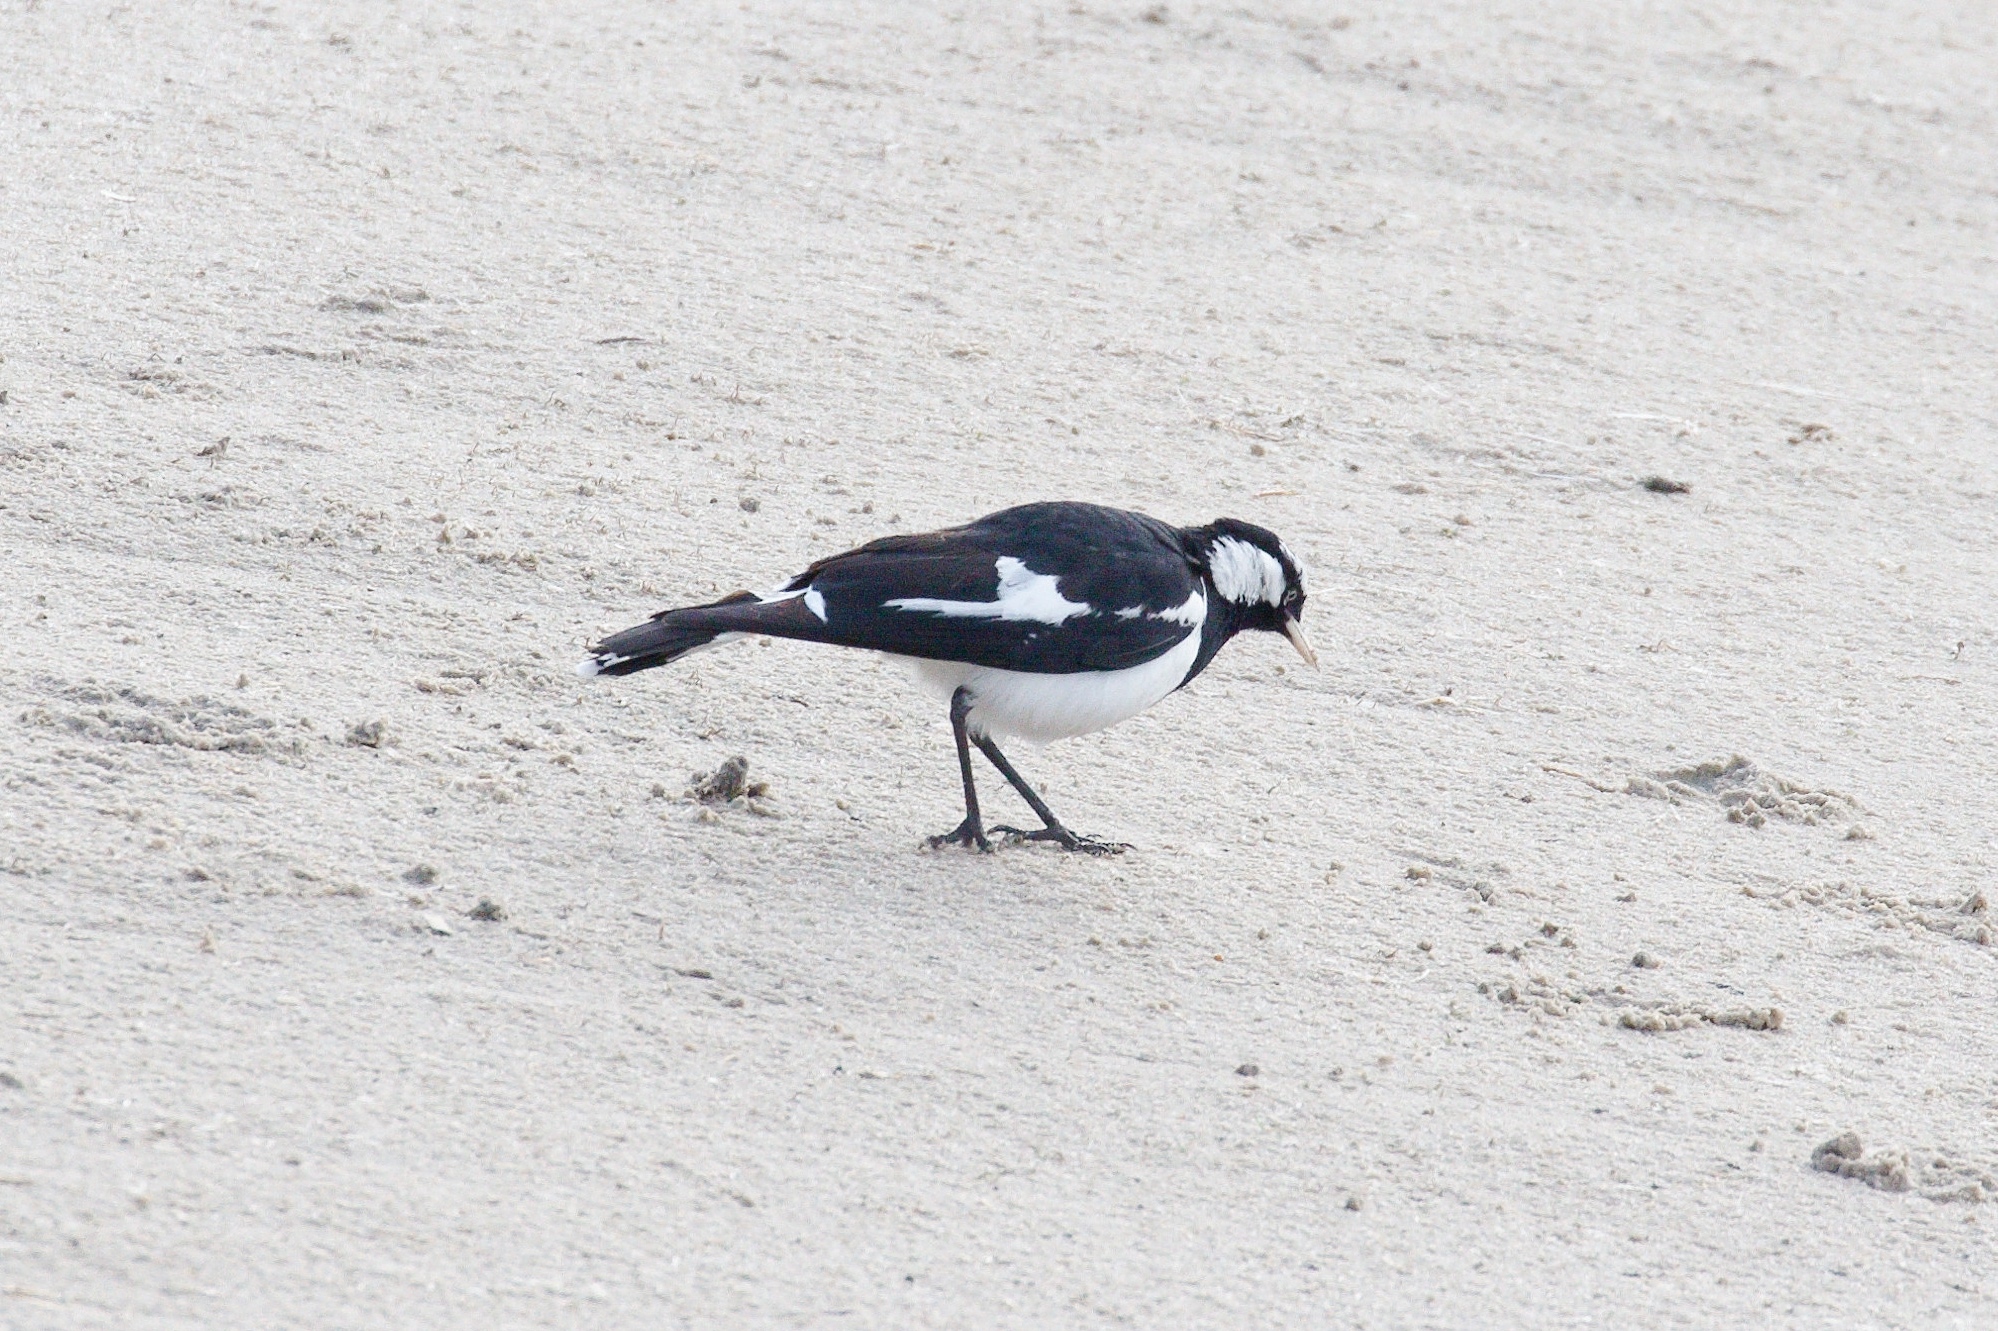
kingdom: Animalia
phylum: Chordata
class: Aves
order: Passeriformes
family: Monarchidae
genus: Grallina
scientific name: Grallina cyanoleuca
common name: Magpie-lark
